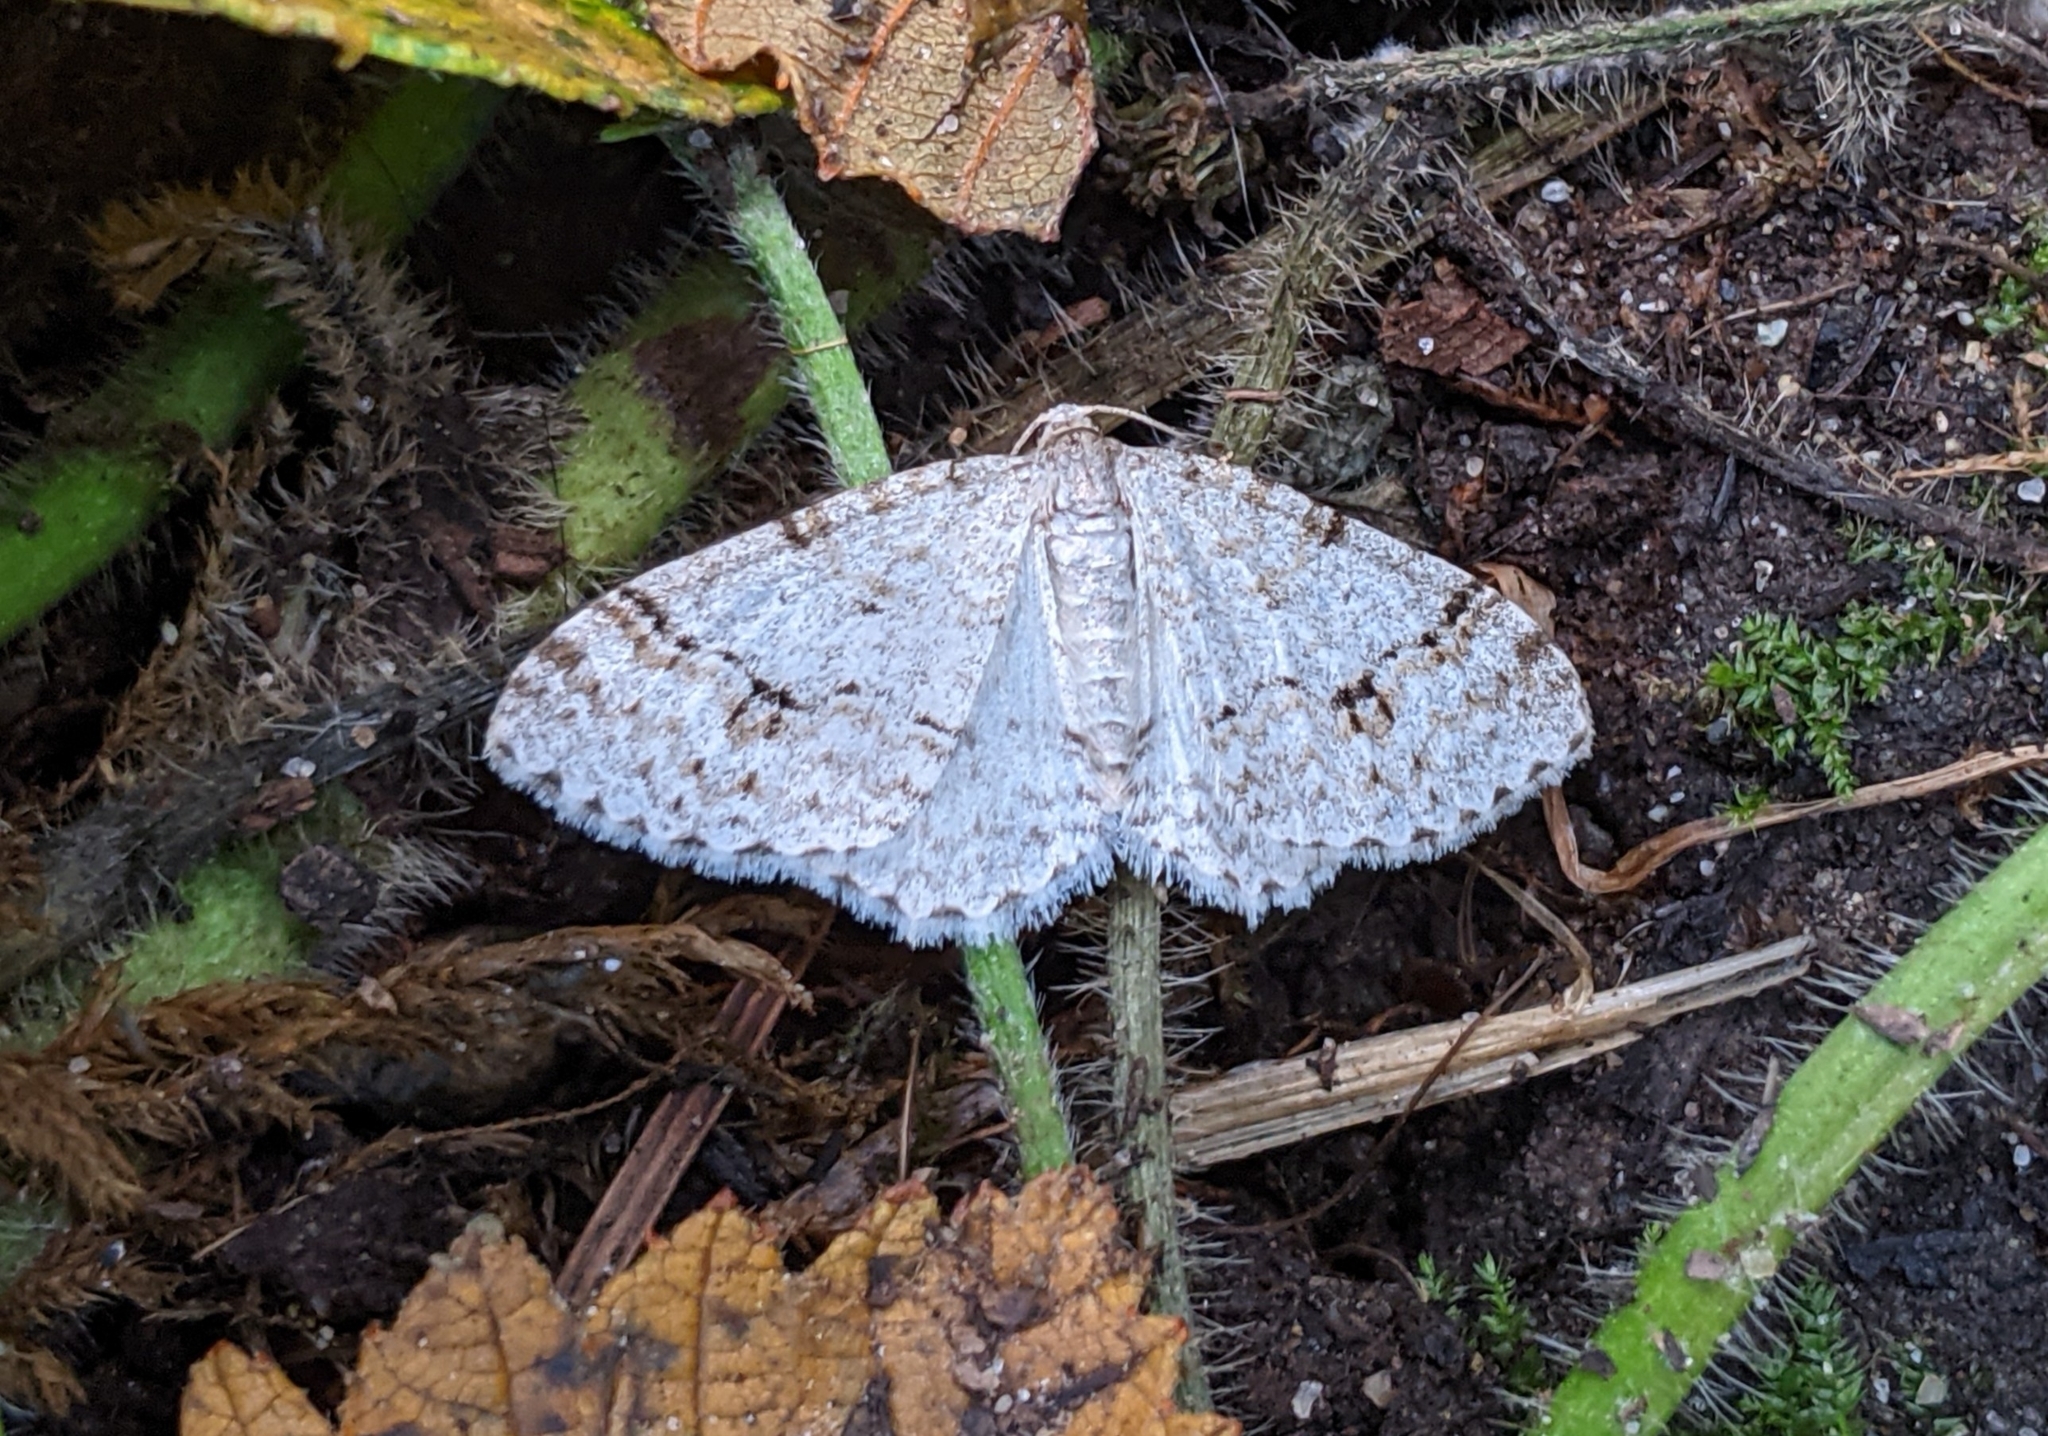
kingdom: Animalia
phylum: Arthropoda
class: Insecta
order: Lepidoptera
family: Geometridae
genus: Venusia
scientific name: Venusia cambrica
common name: Welsh wave
